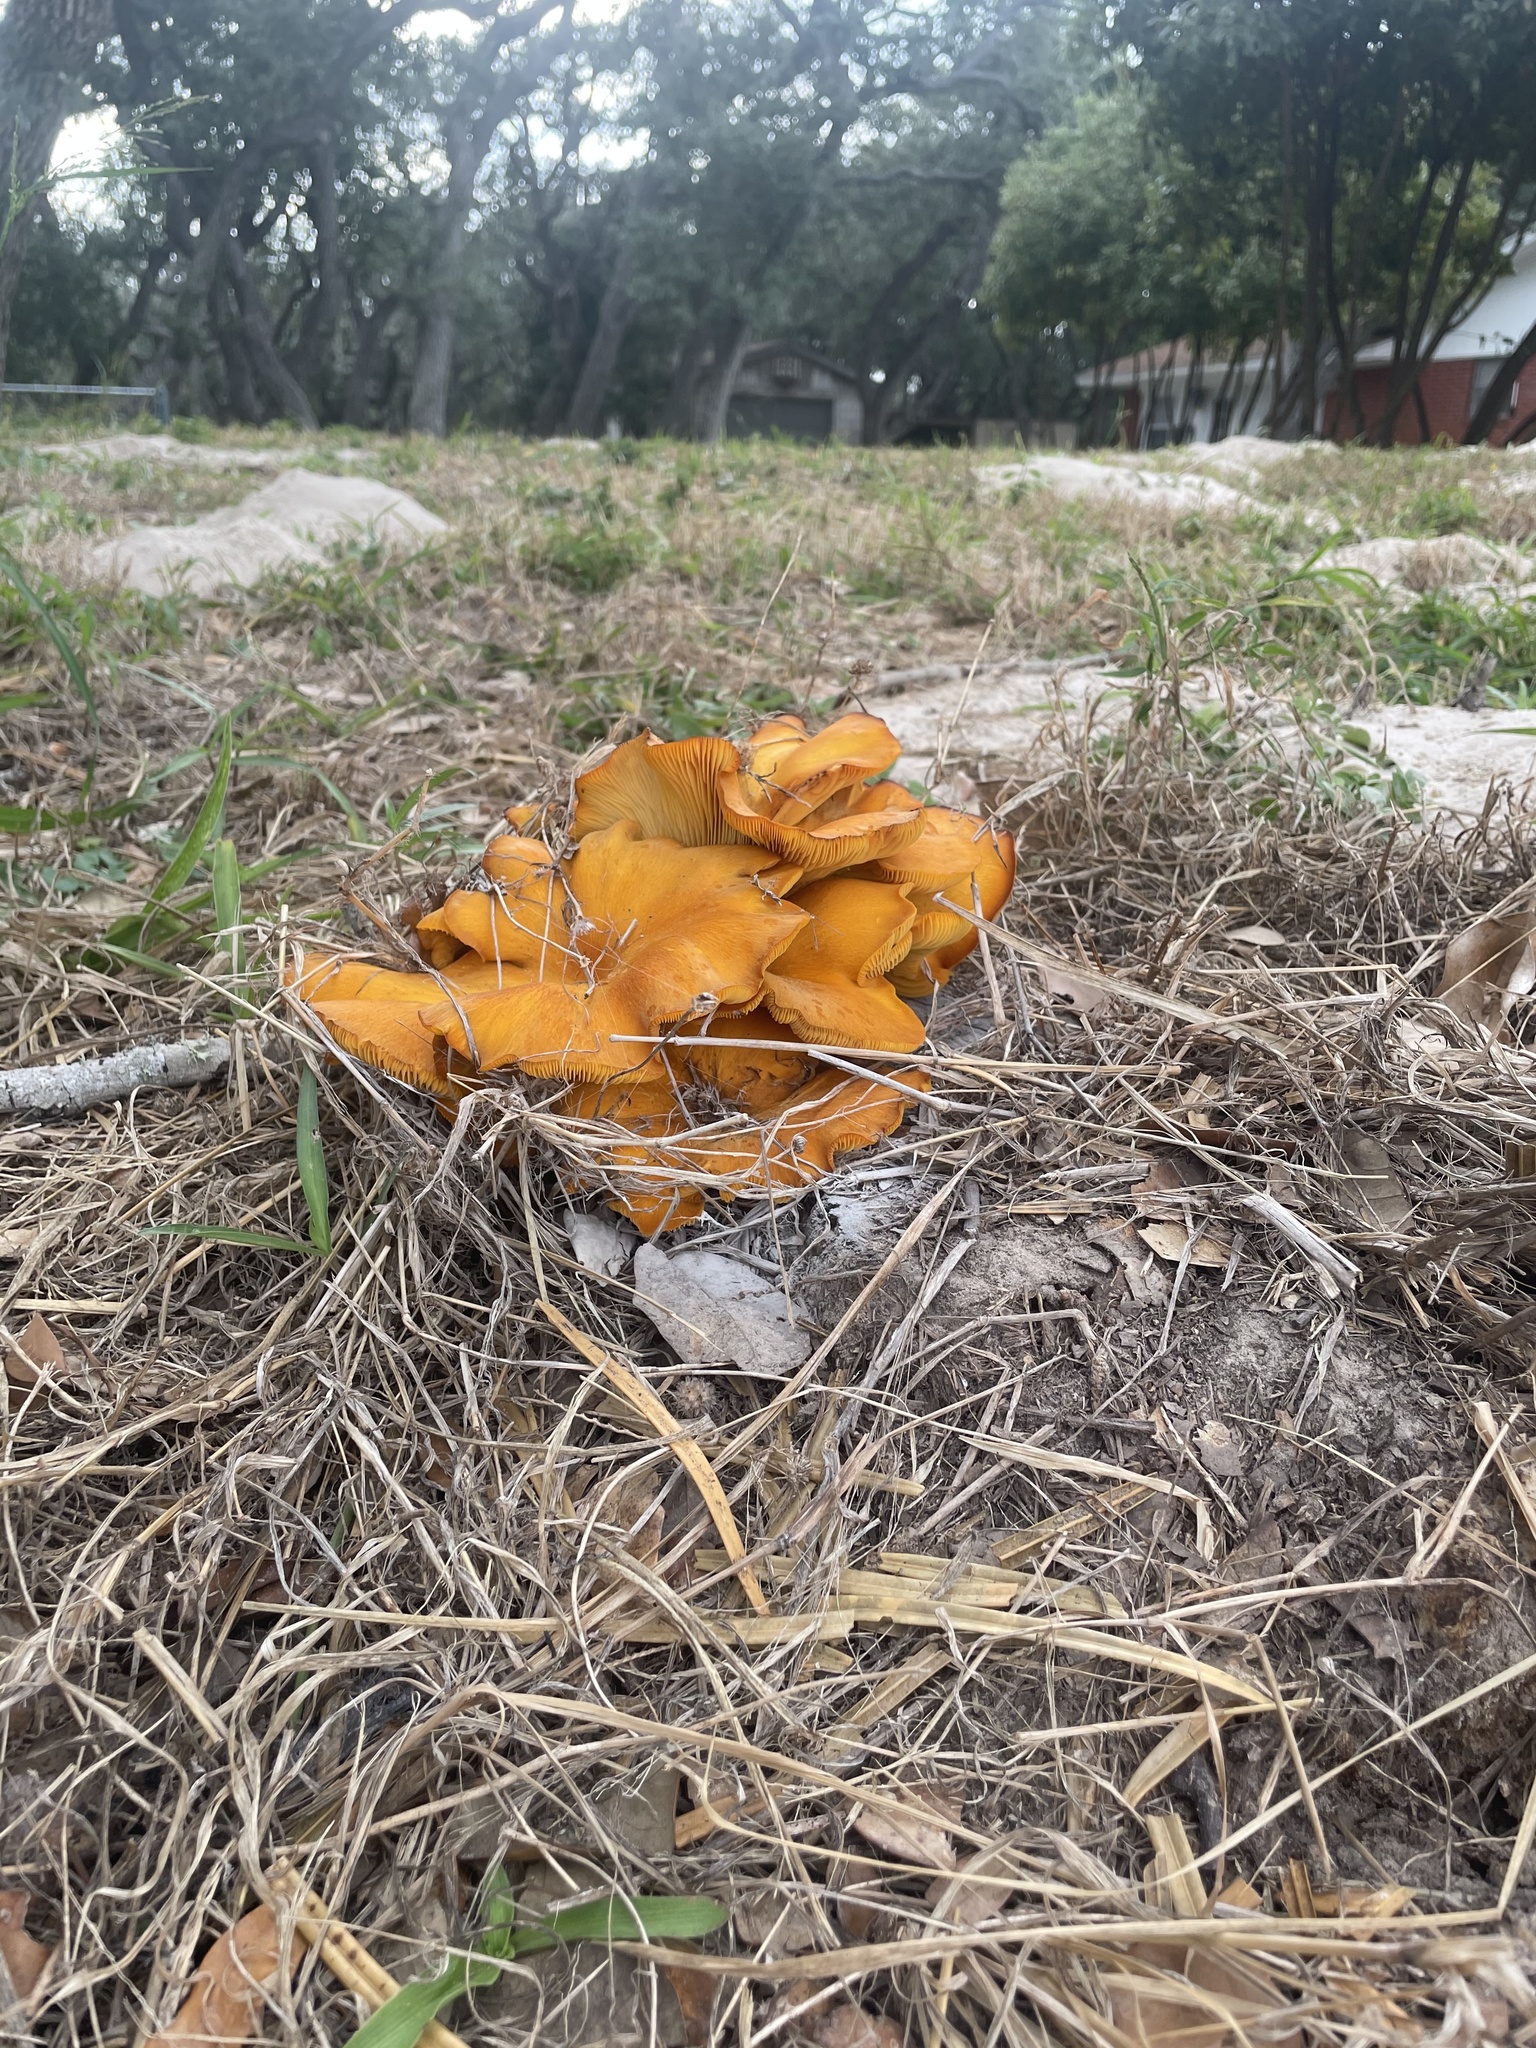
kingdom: Fungi
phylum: Basidiomycota
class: Agaricomycetes
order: Agaricales
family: Omphalotaceae
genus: Omphalotus
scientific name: Omphalotus subilludens
